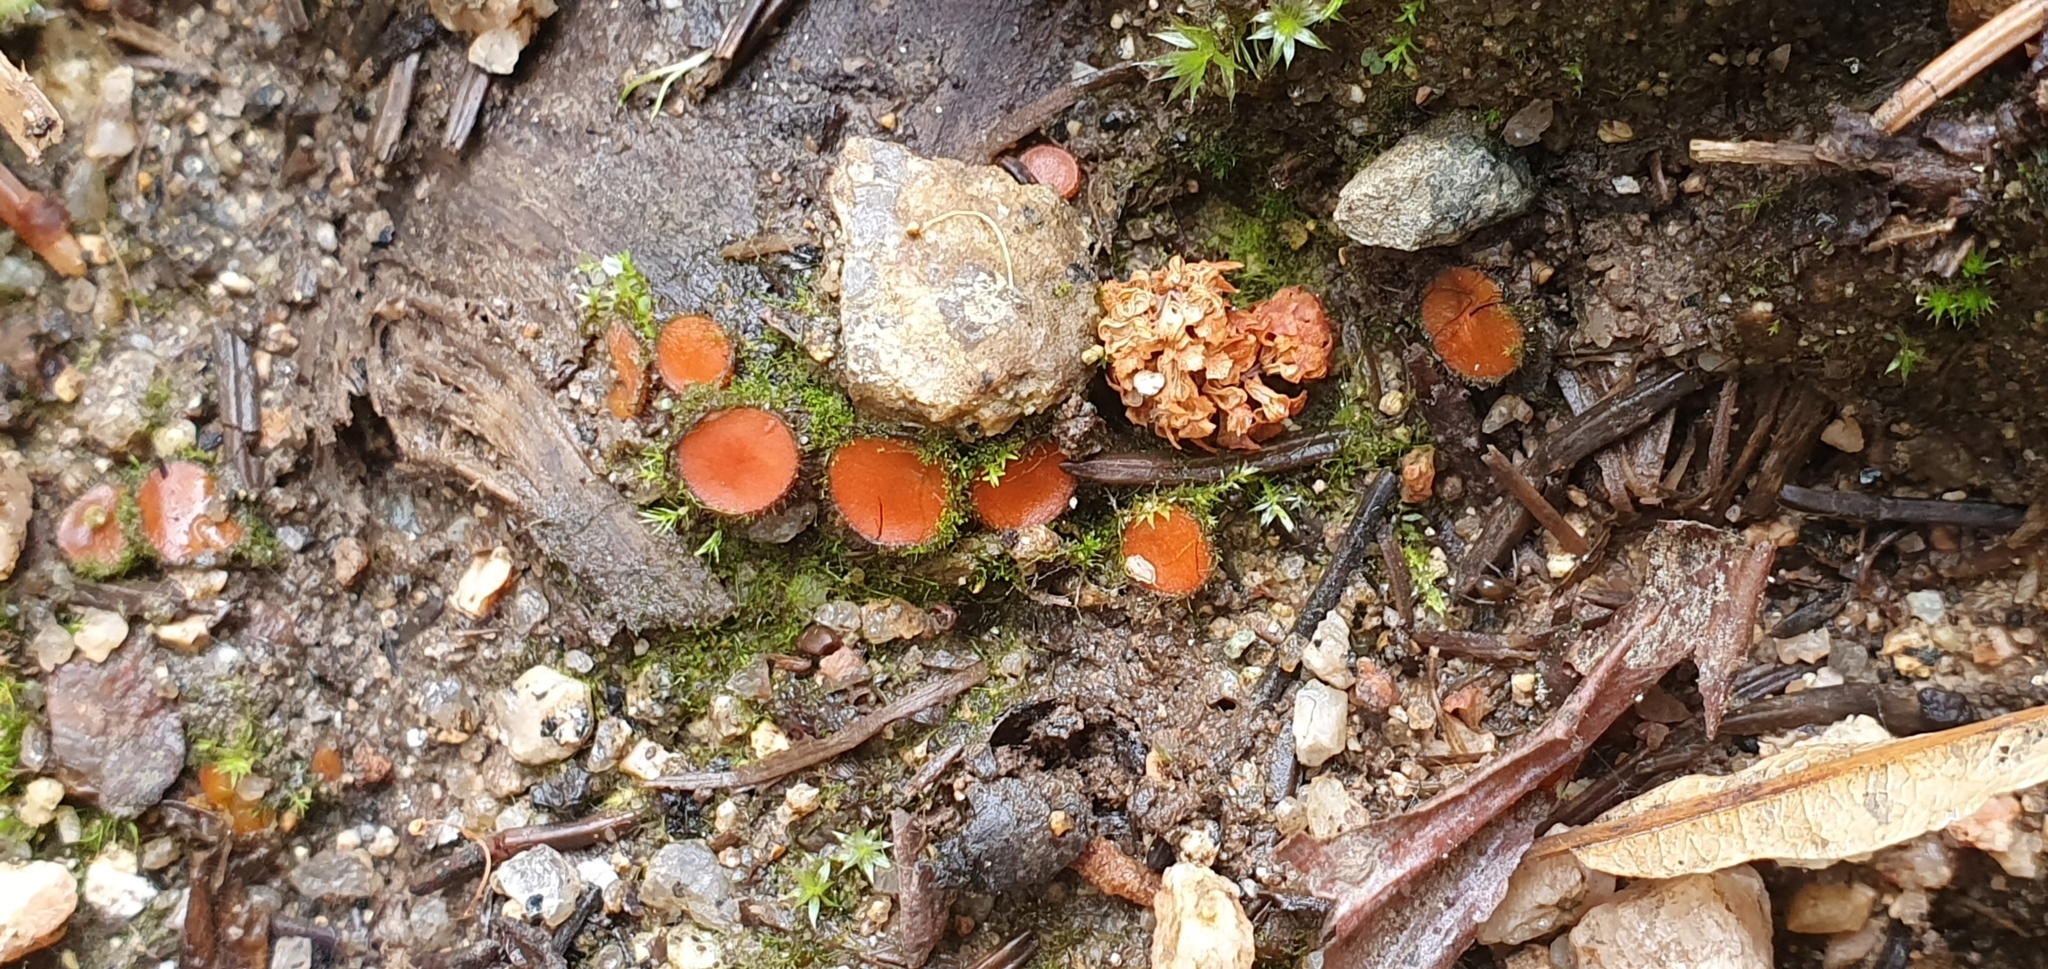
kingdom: Fungi
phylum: Ascomycota
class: Pezizomycetes
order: Pezizales
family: Pyronemataceae
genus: Scutellinia
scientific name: Scutellinia
